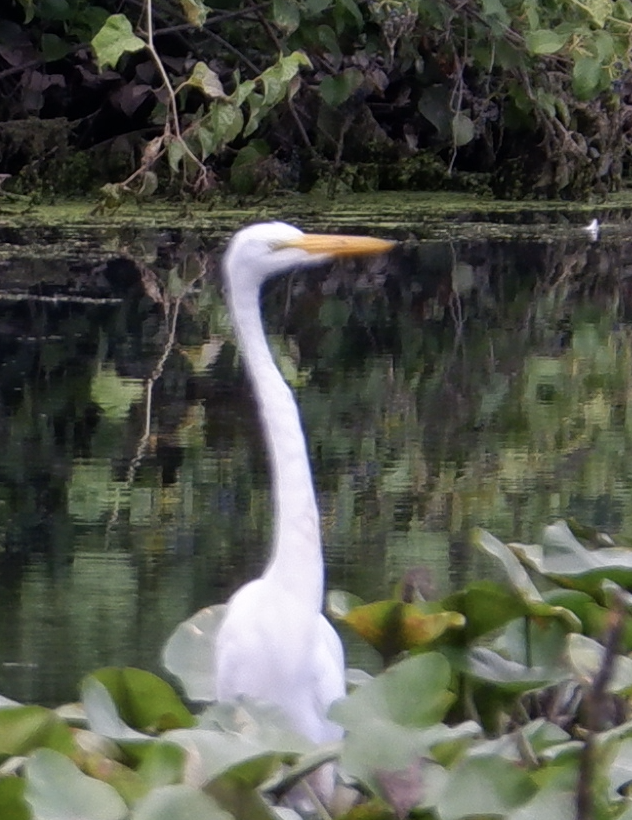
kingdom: Animalia
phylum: Chordata
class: Aves
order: Pelecaniformes
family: Ardeidae
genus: Ardea
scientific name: Ardea alba
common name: Great egret
